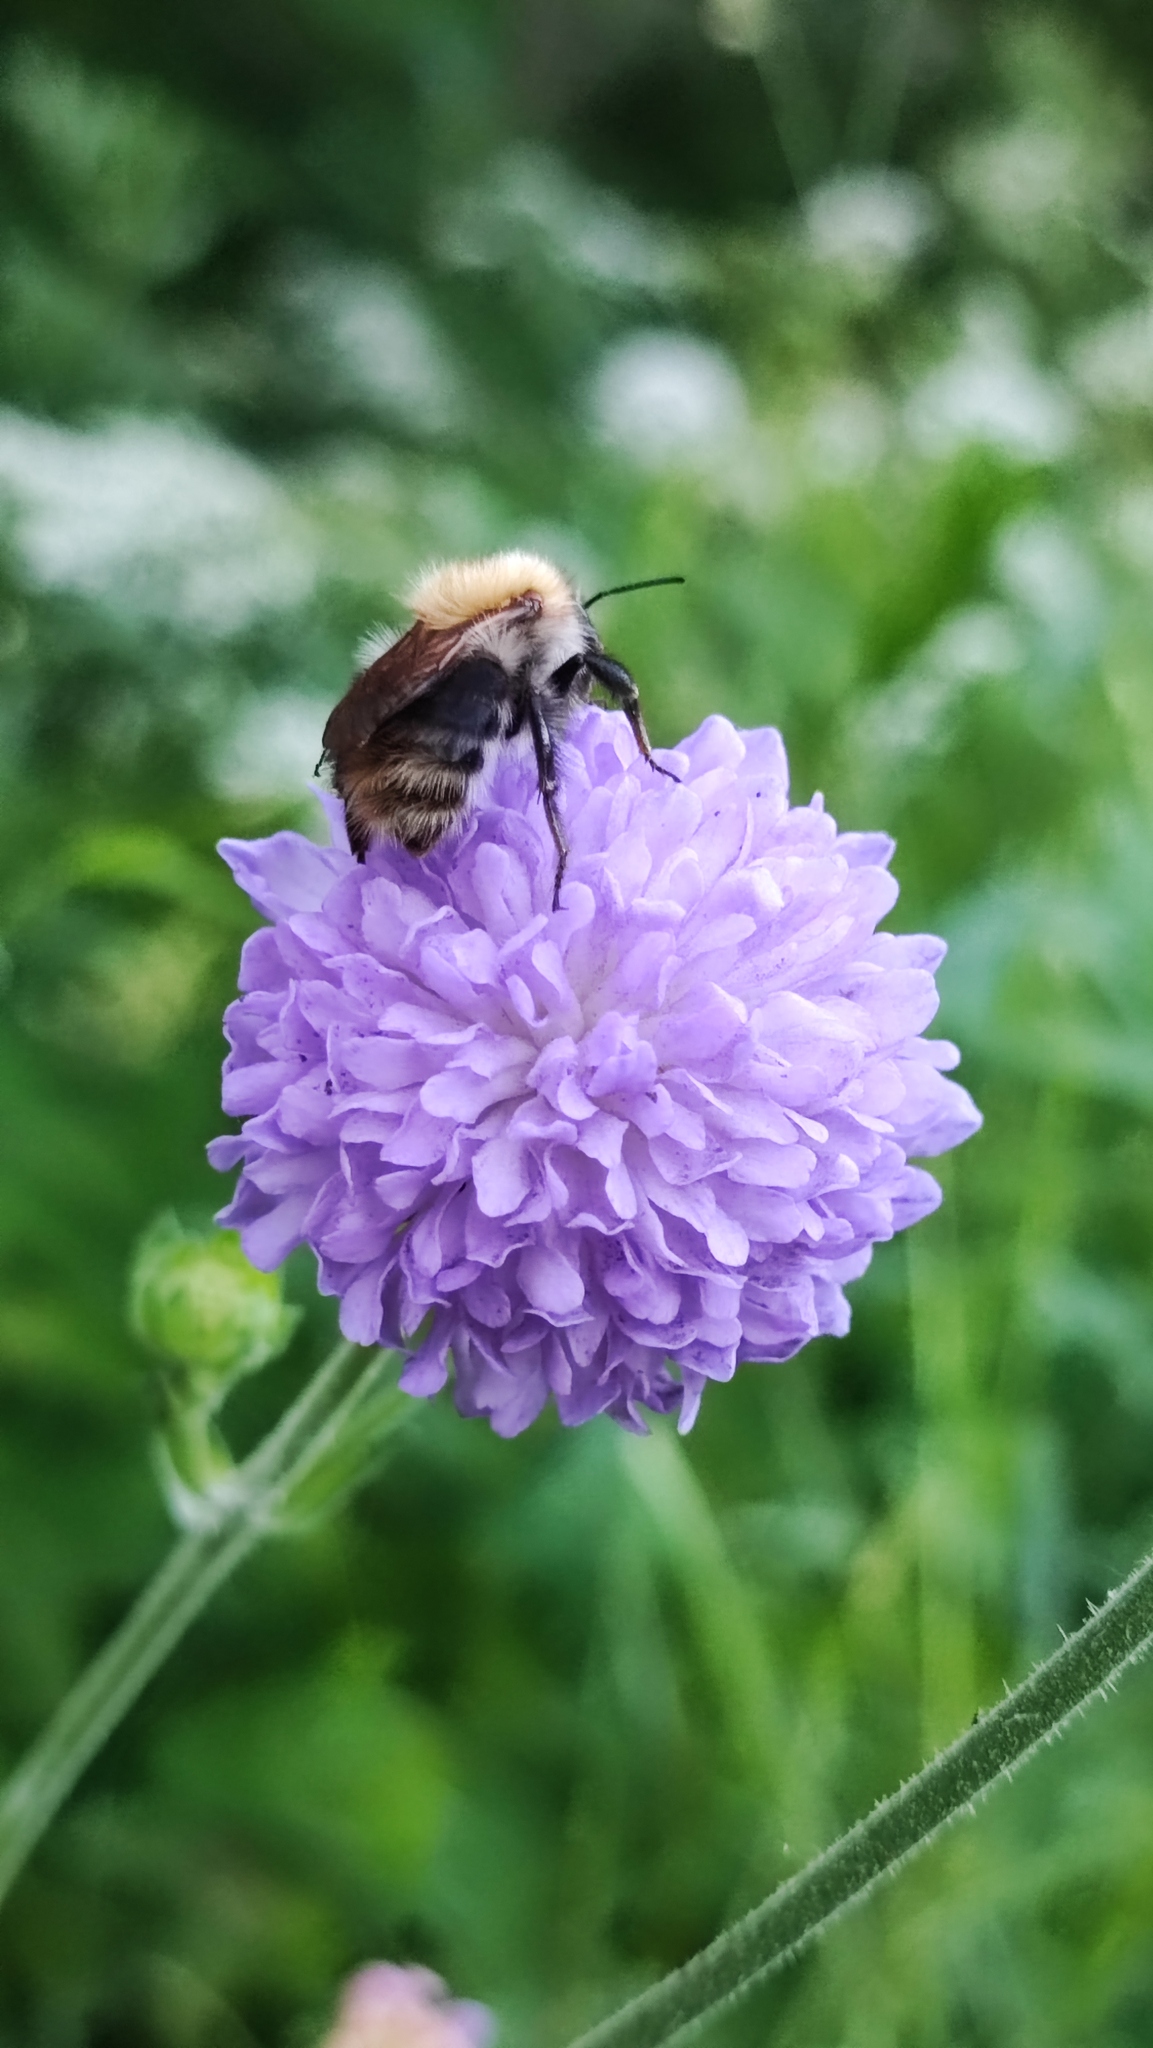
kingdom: Animalia
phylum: Arthropoda
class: Insecta
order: Hymenoptera
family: Apidae
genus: Bombus
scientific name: Bombus pascuorum
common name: Common carder bee
